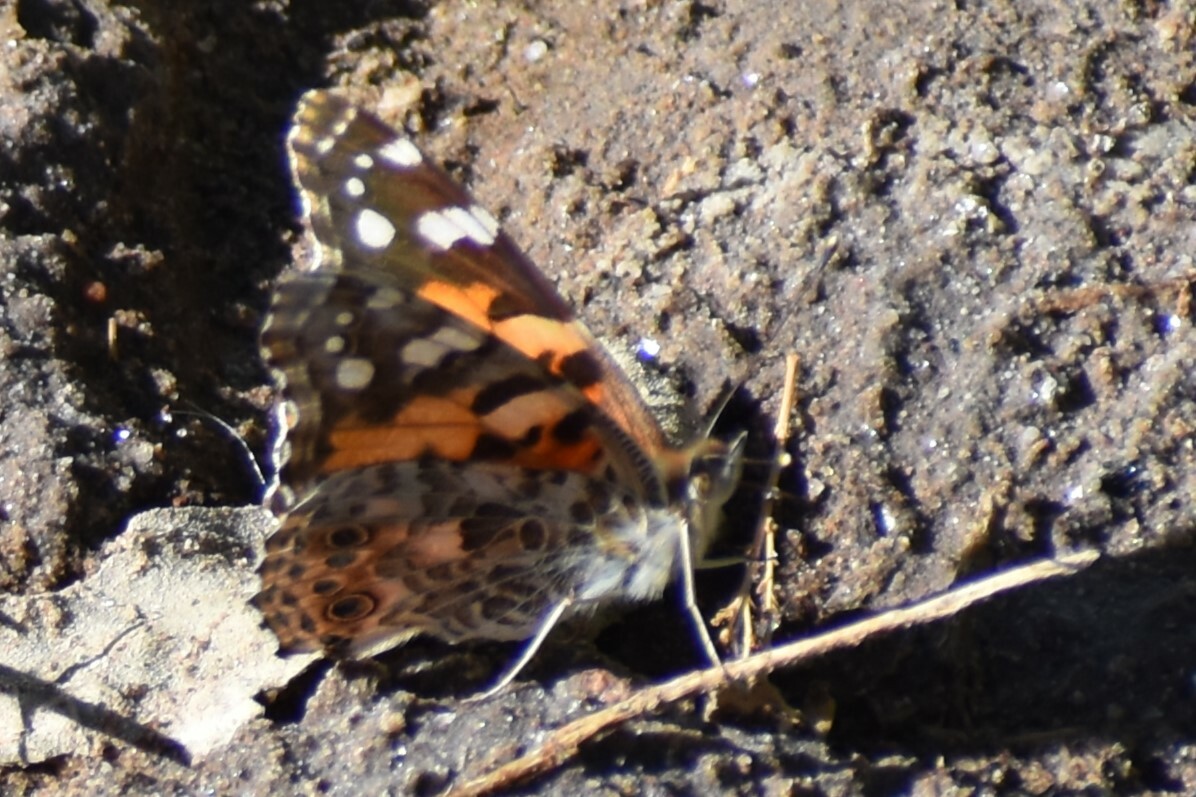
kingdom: Animalia
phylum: Arthropoda
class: Insecta
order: Lepidoptera
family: Nymphalidae
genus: Vanessa
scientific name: Vanessa cardui
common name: Painted lady
